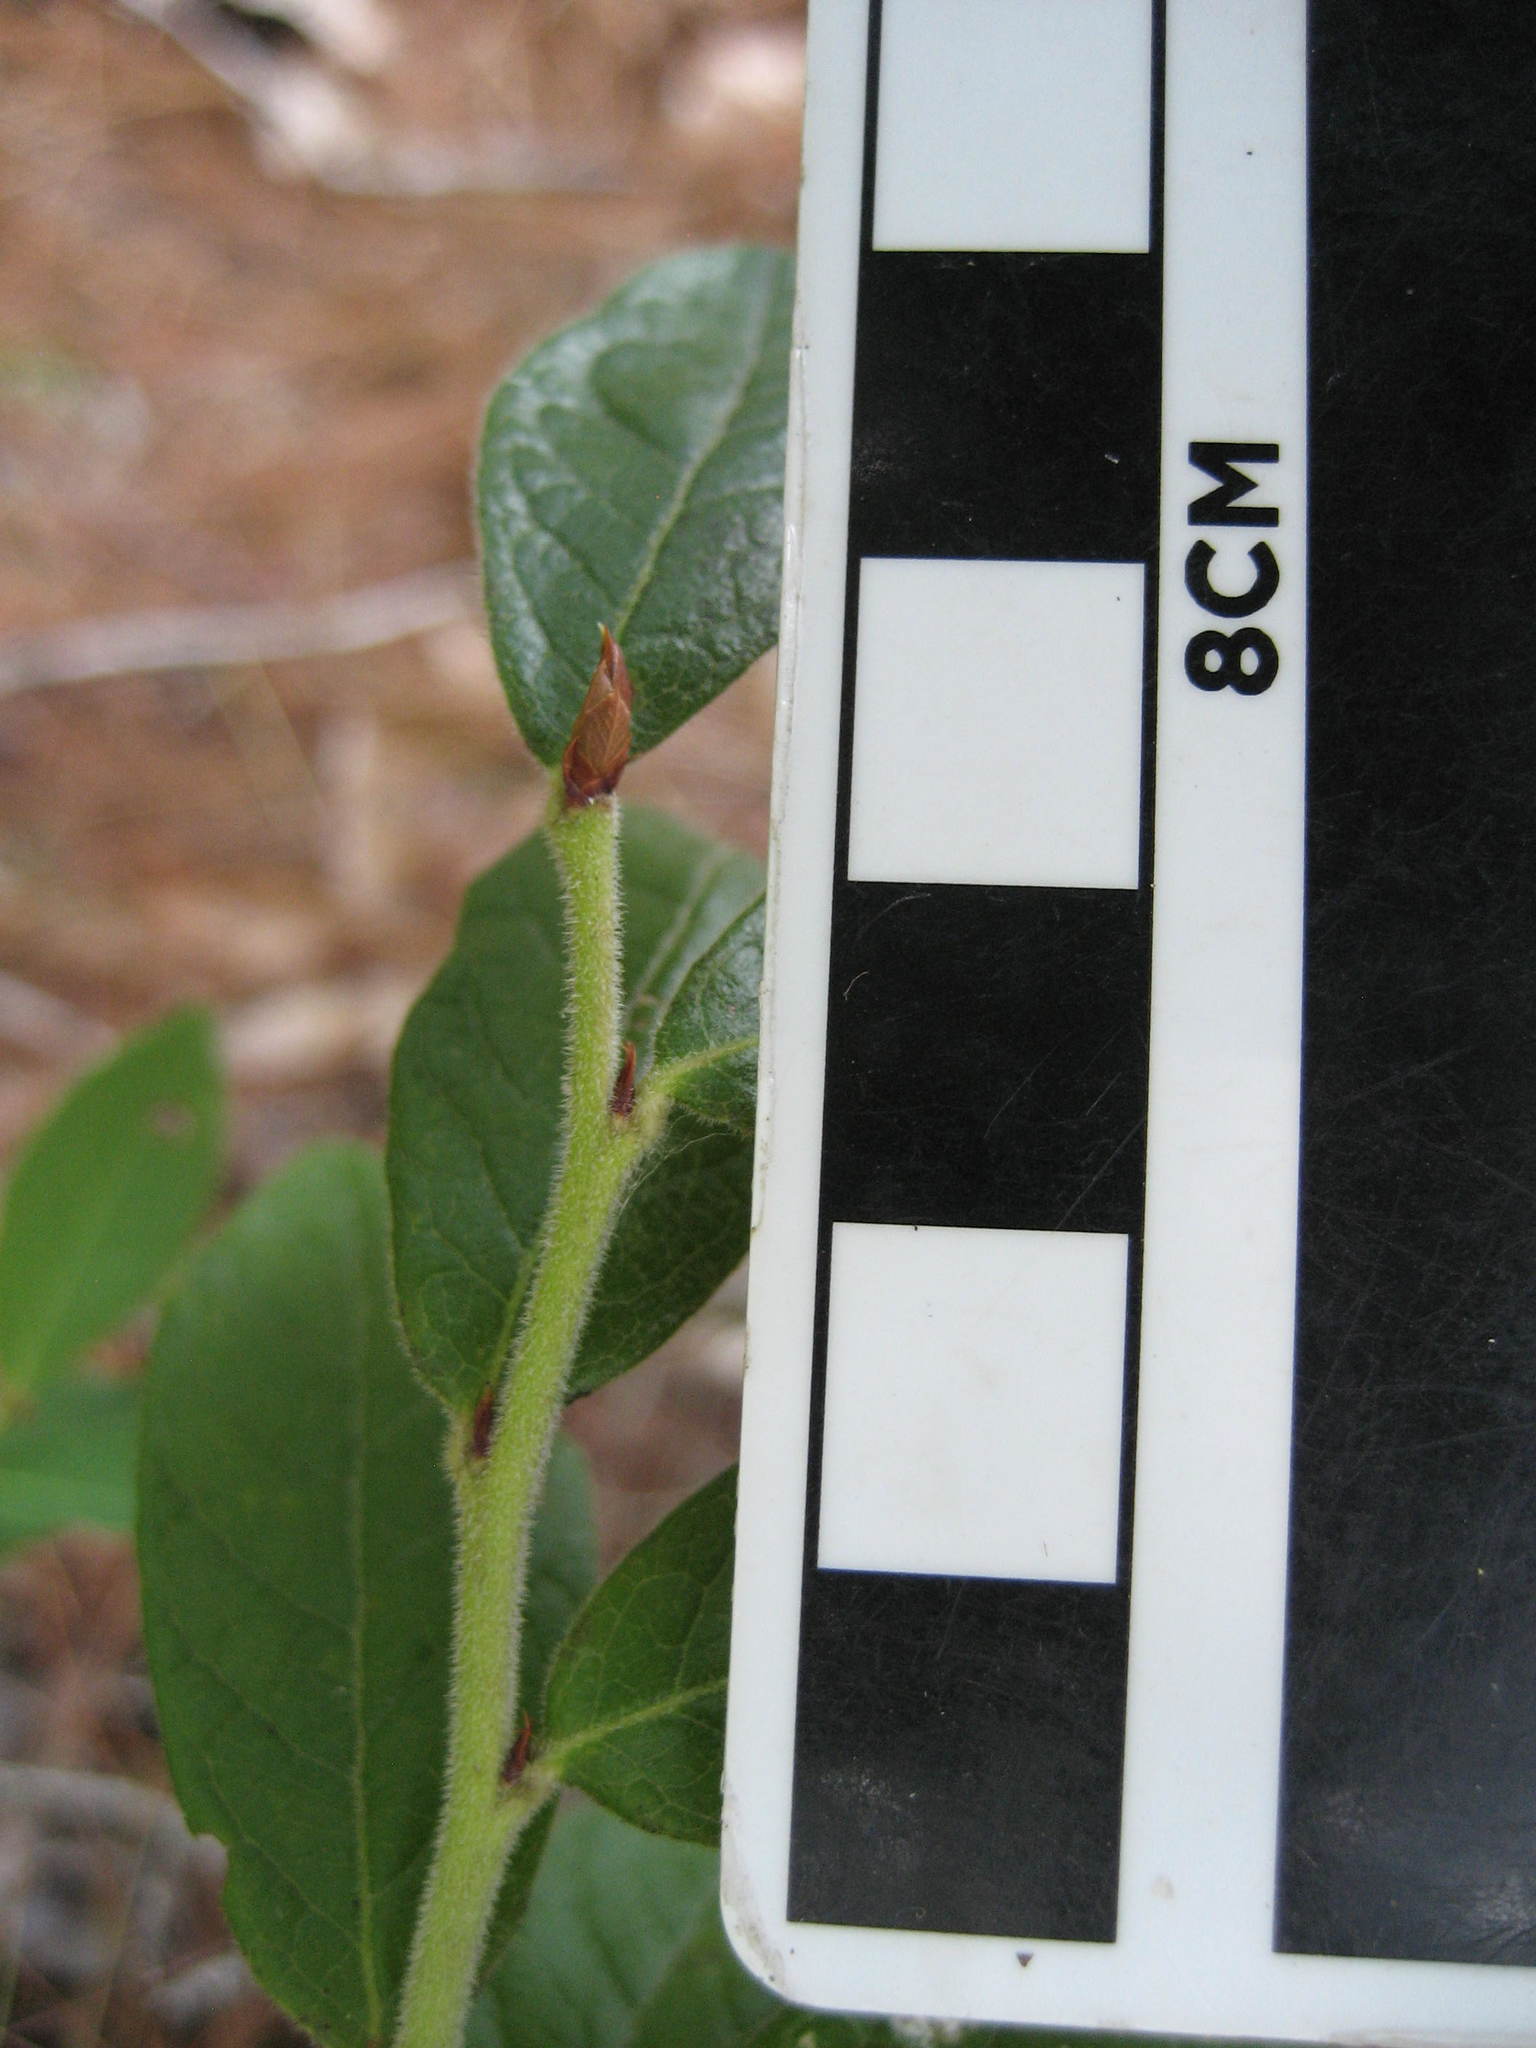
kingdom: Plantae
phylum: Tracheophyta
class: Magnoliopsida
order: Ericales
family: Ericaceae
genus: Vaccinium
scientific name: Vaccinium myrtilloides
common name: Canada blueberry
